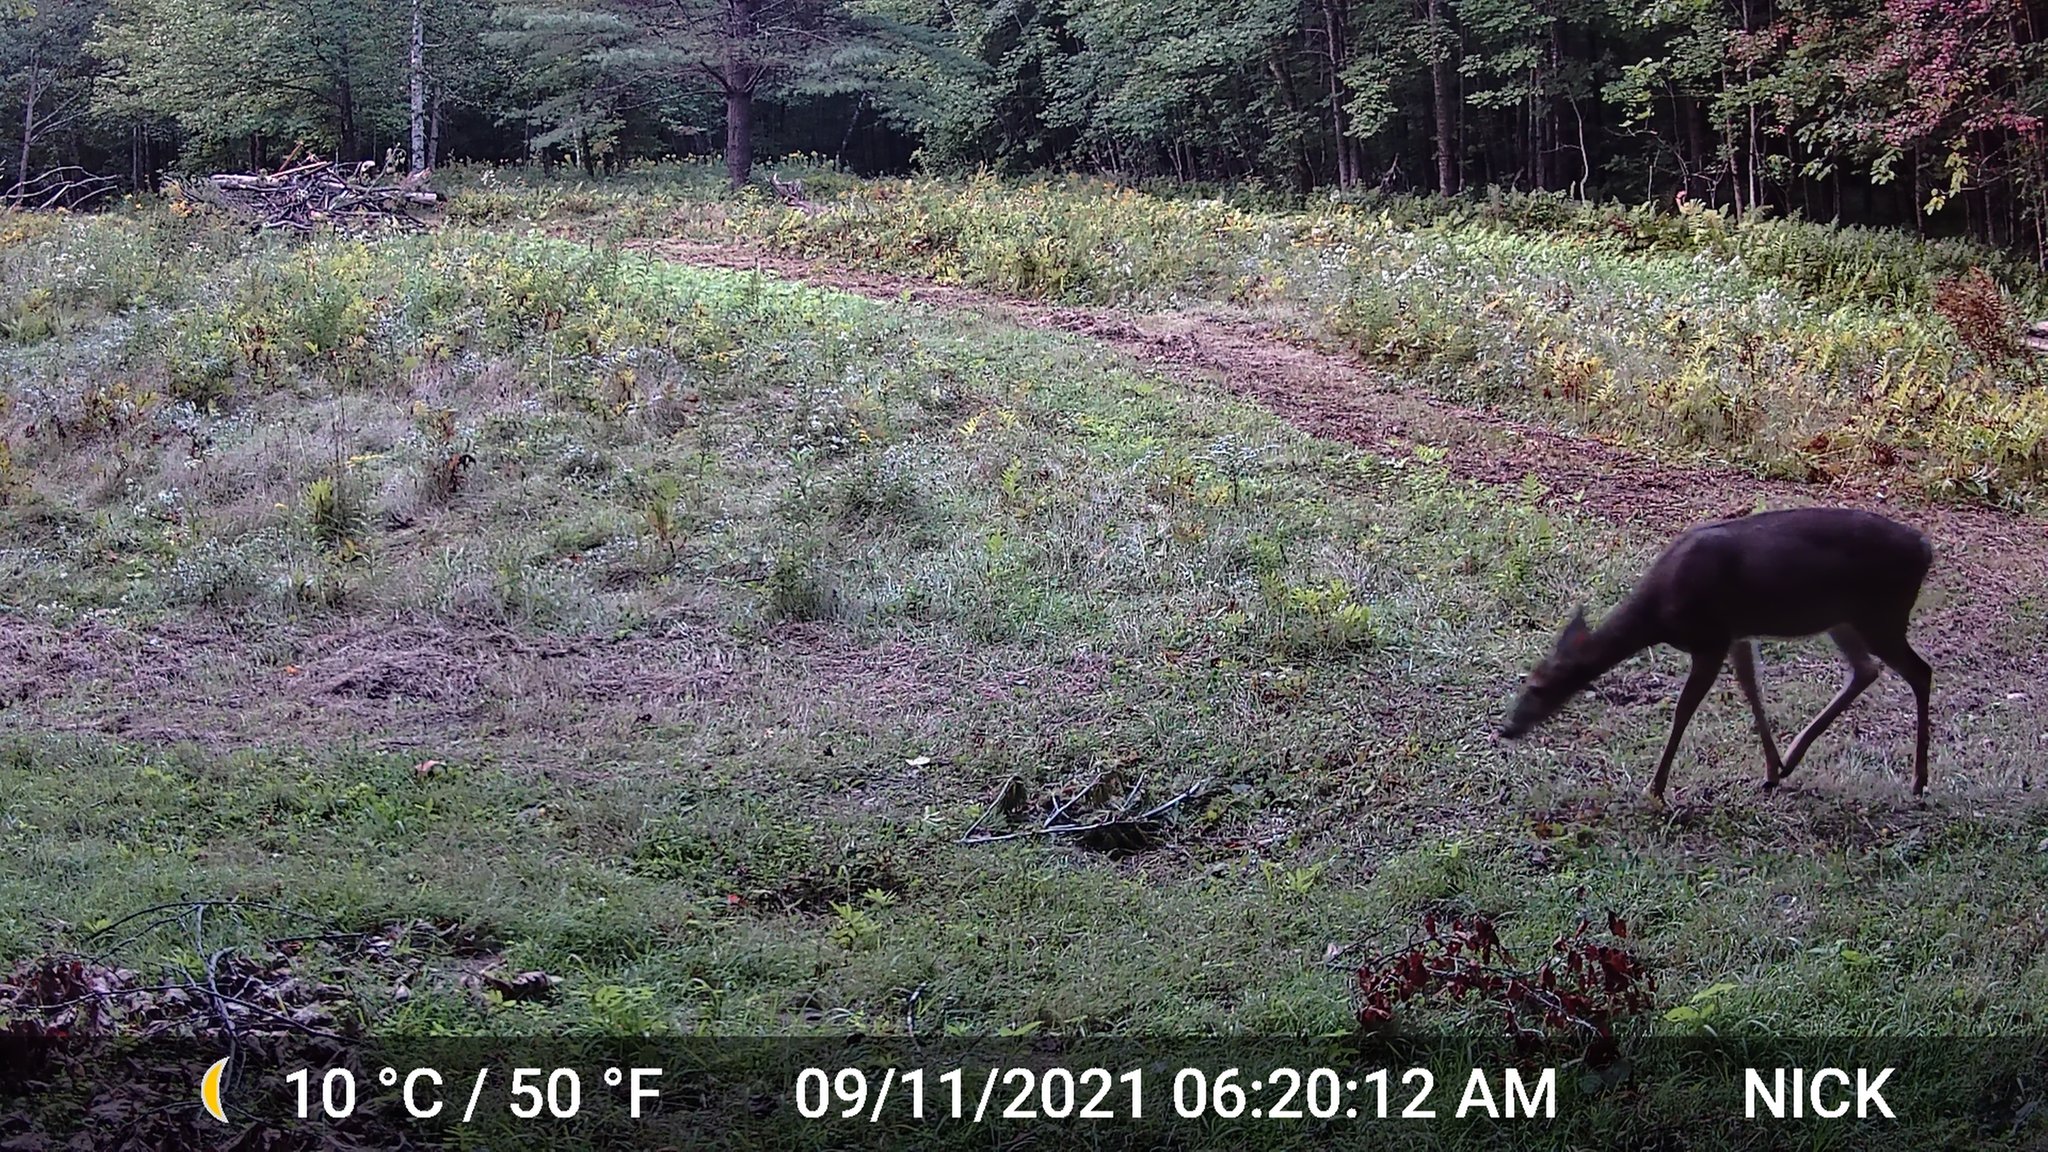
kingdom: Animalia
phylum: Chordata
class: Mammalia
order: Artiodactyla
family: Cervidae
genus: Odocoileus
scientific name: Odocoileus virginianus
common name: White-tailed deer
